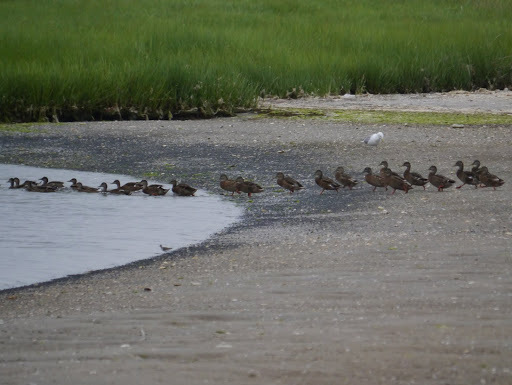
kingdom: Animalia
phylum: Chordata
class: Aves
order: Anseriformes
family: Anatidae
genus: Anas
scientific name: Anas platyrhynchos
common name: Mallard
